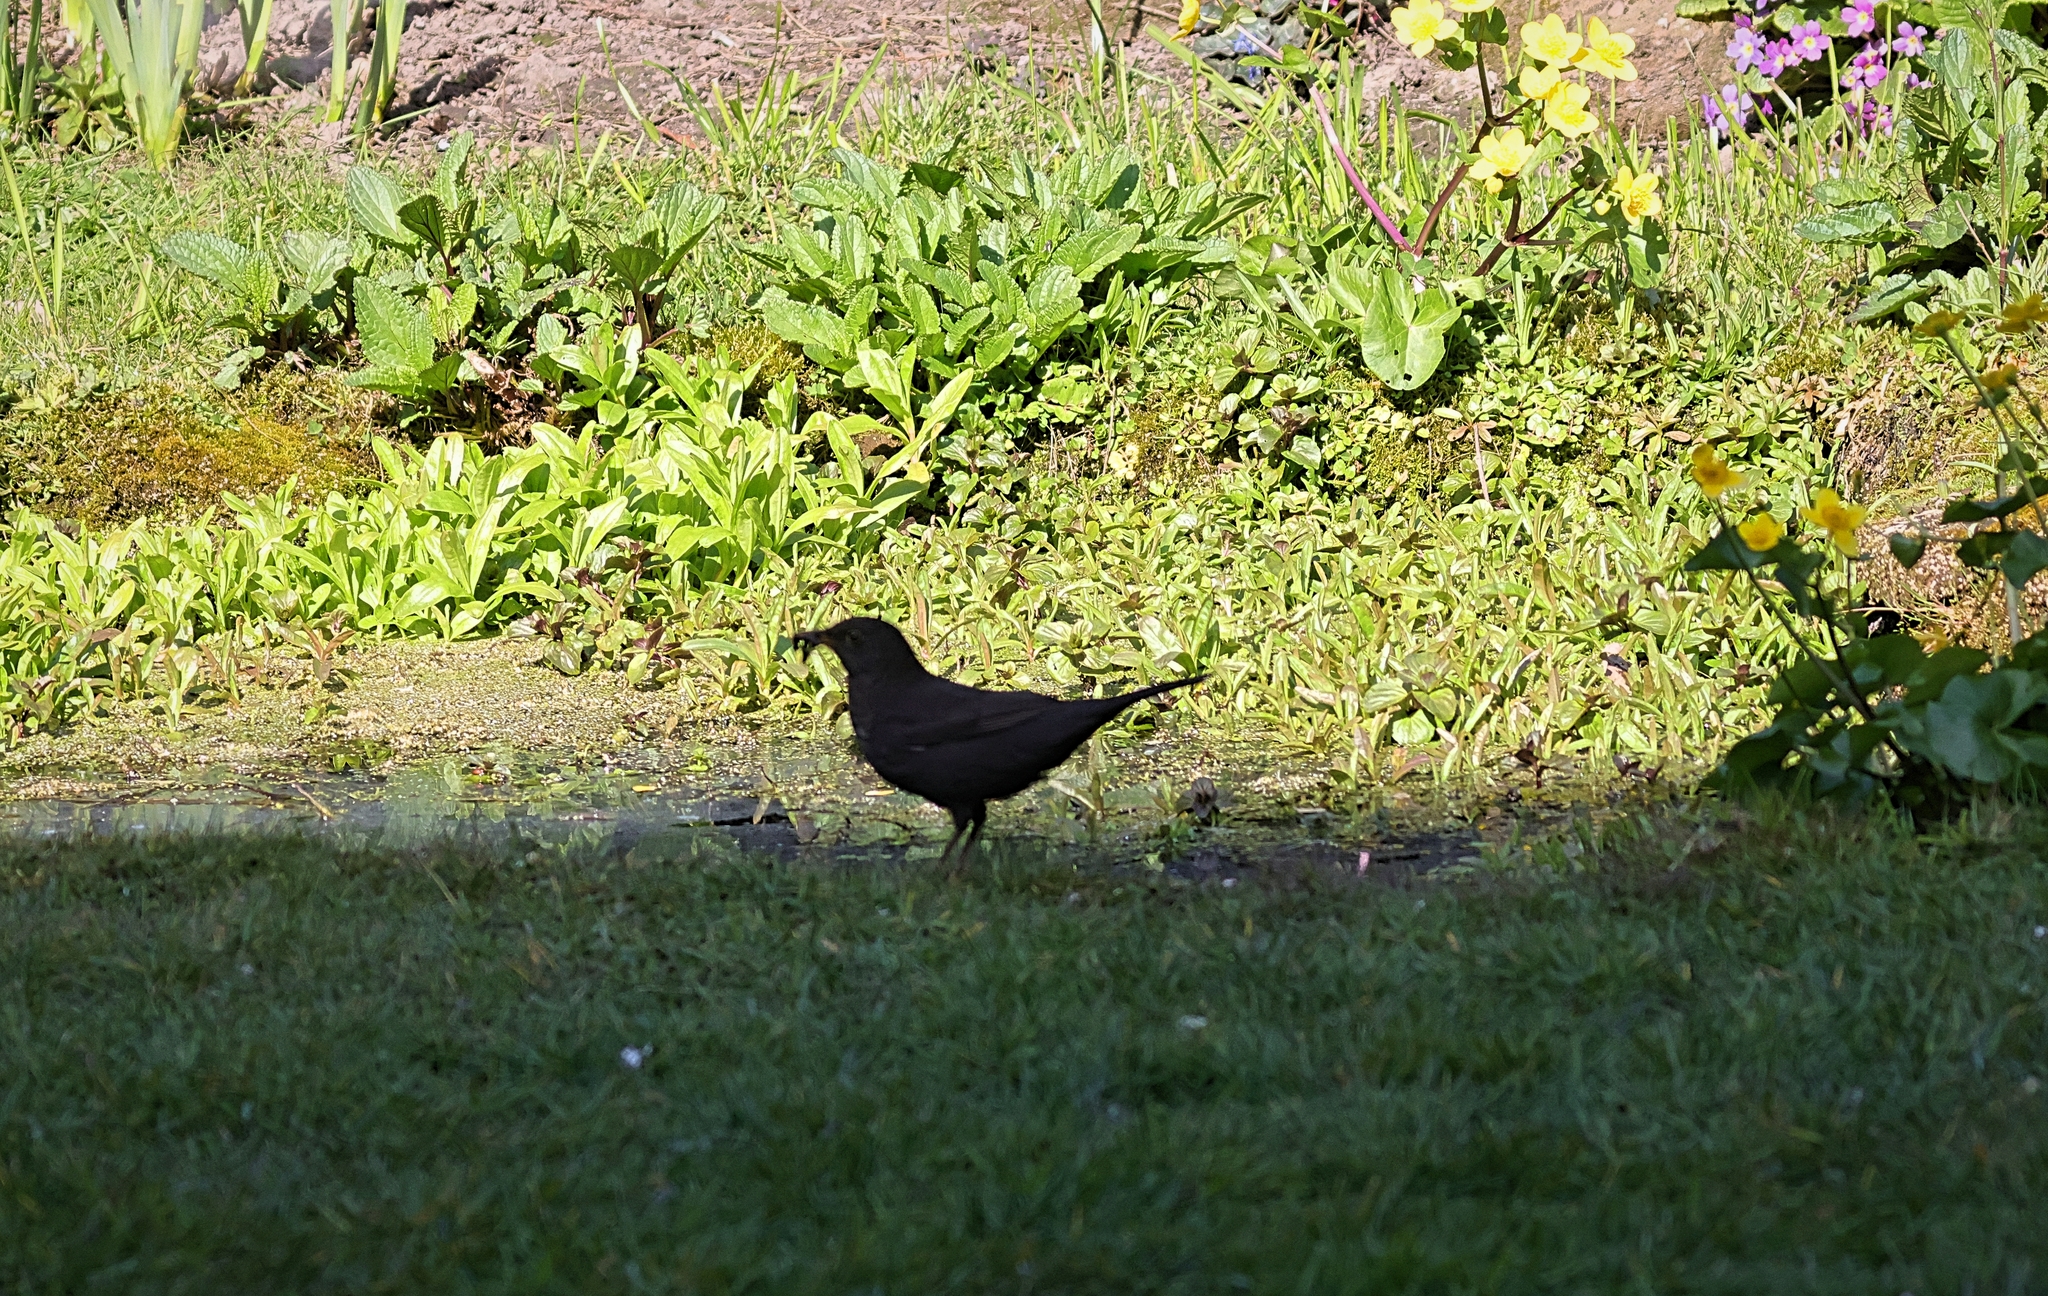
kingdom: Animalia
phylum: Chordata
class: Aves
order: Passeriformes
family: Turdidae
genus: Turdus
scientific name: Turdus merula
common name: Common blackbird
